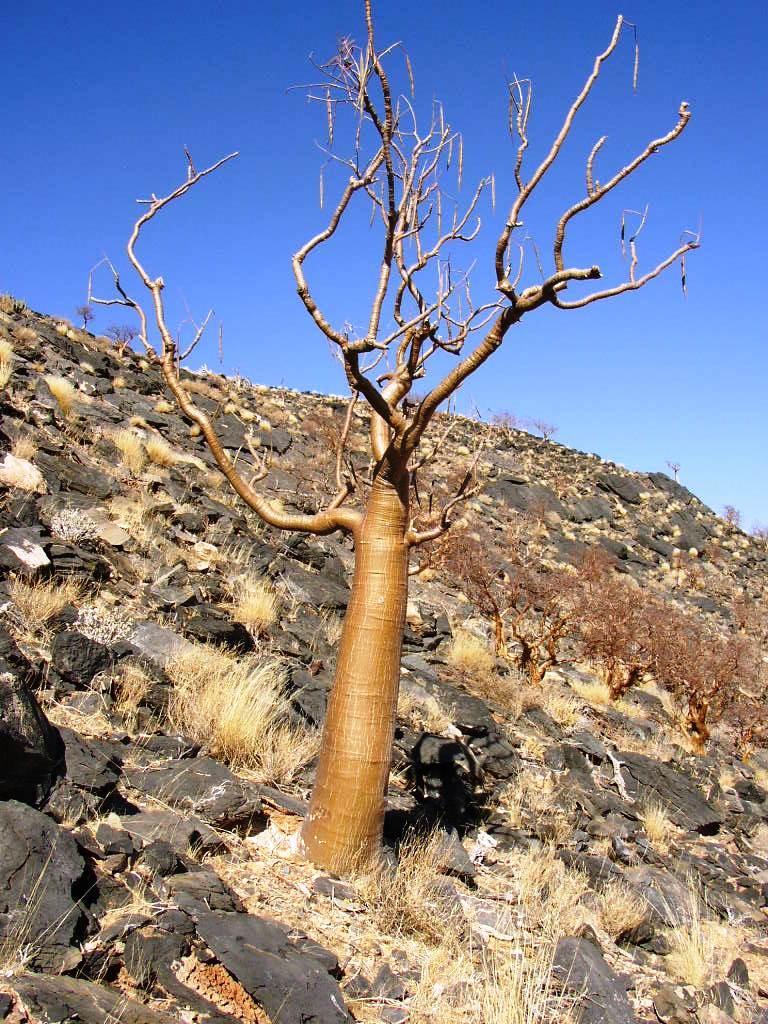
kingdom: Plantae
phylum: Tracheophyta
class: Magnoliopsida
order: Brassicales
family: Moringaceae
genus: Moringa
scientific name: Moringa ovalifolia
